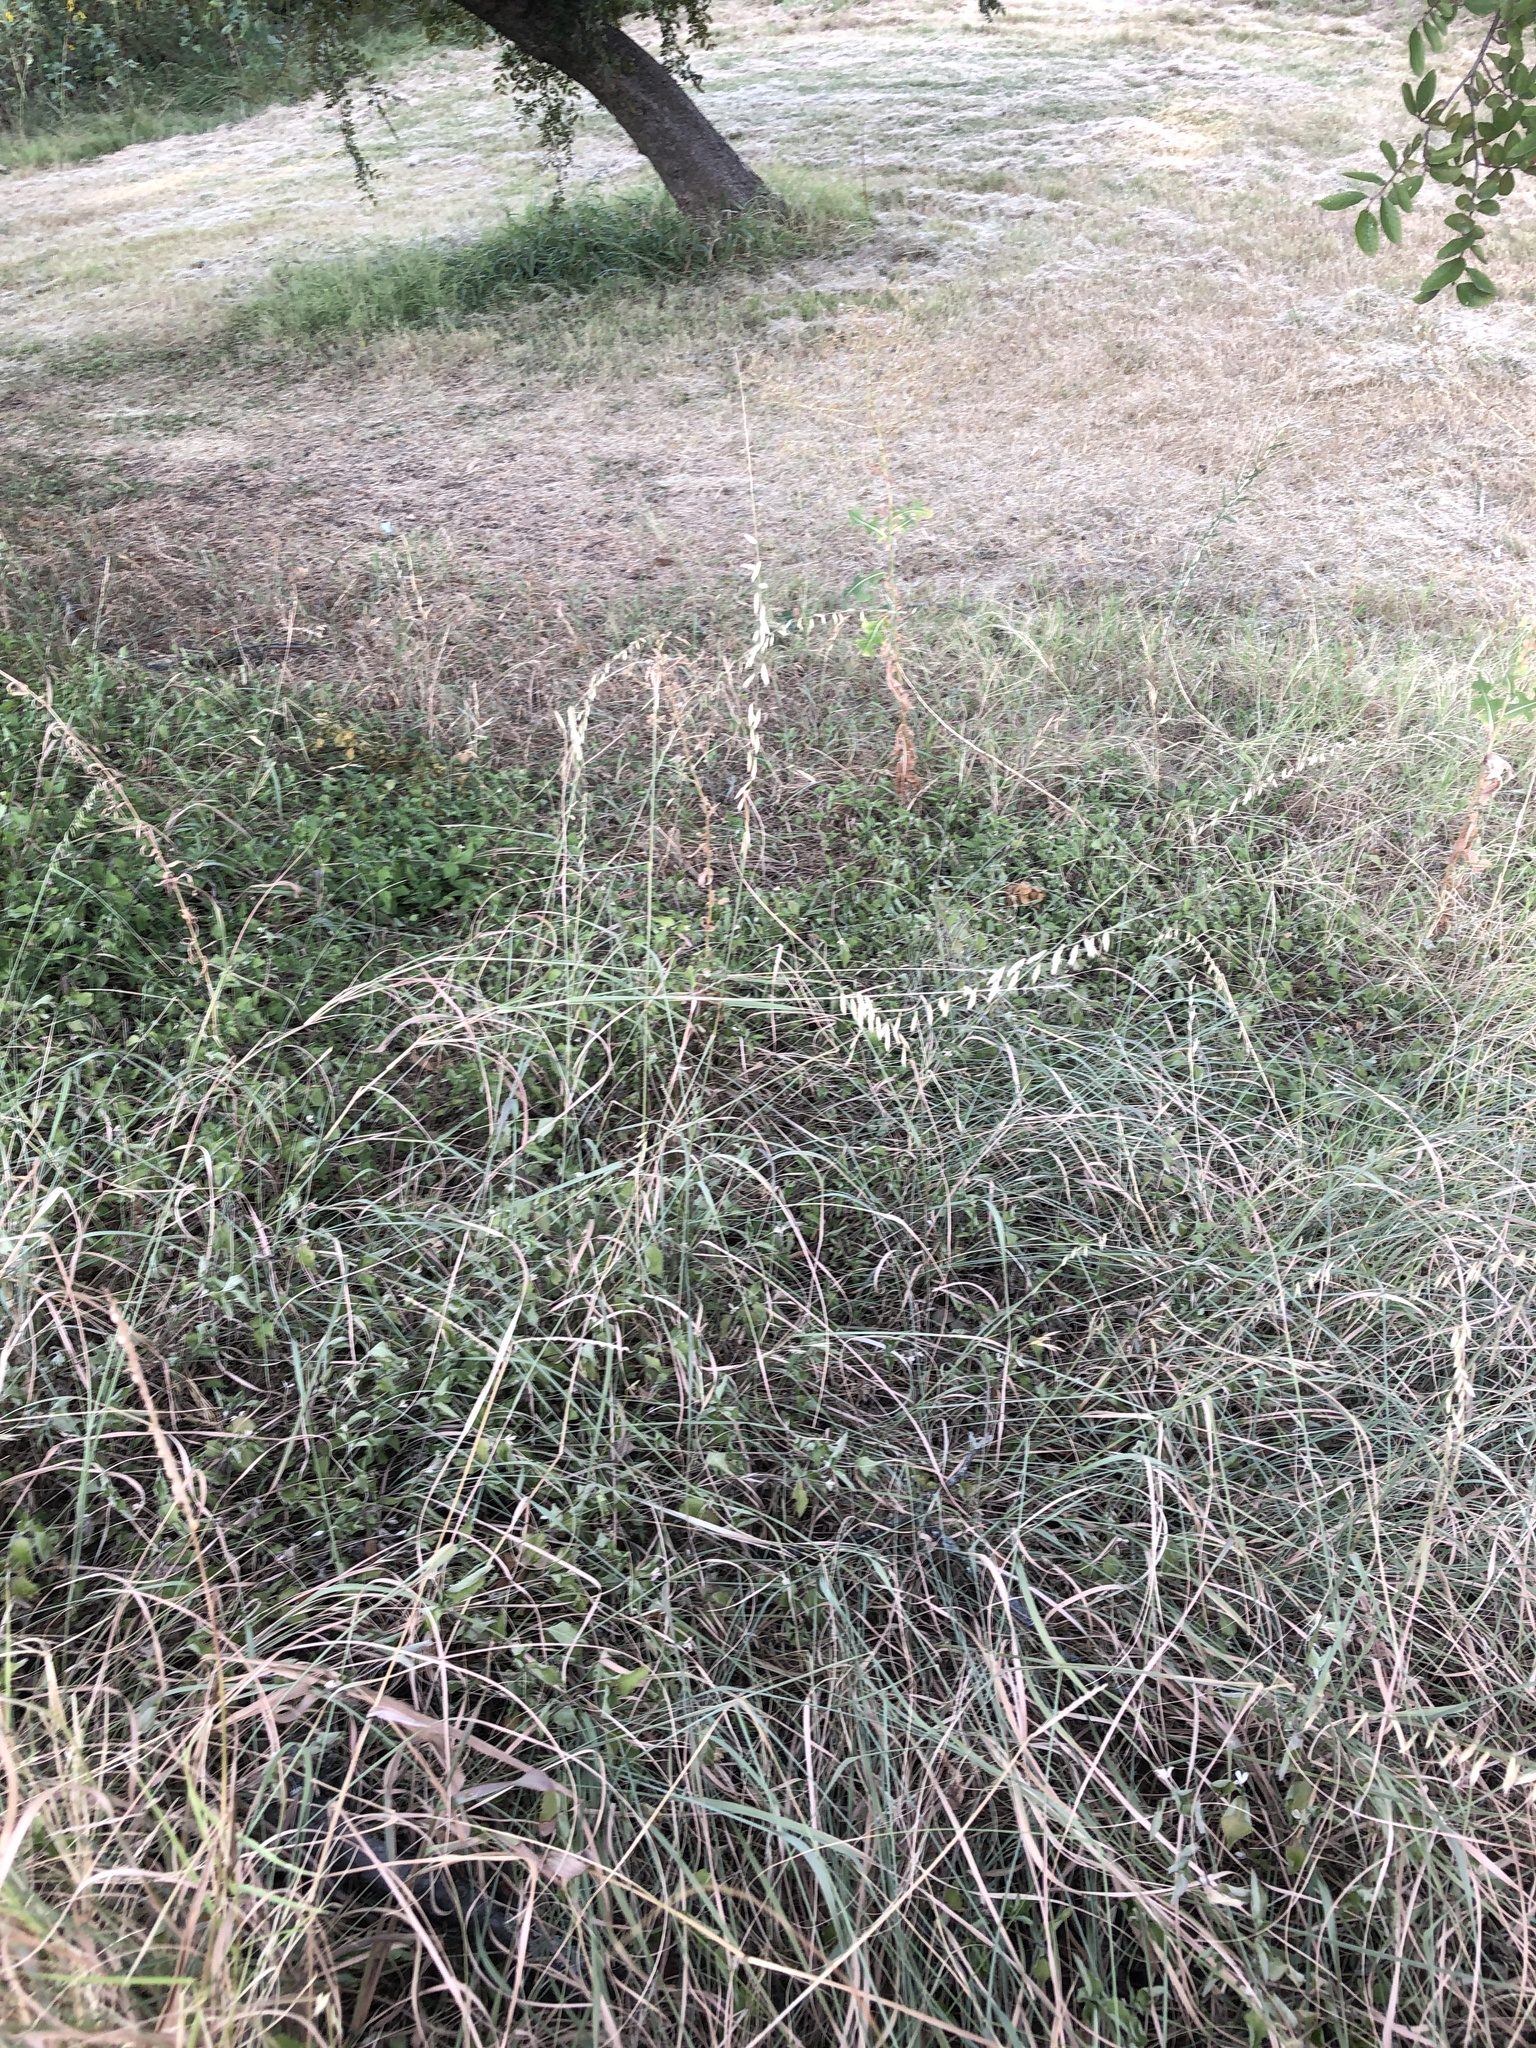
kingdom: Plantae
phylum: Tracheophyta
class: Liliopsida
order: Poales
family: Poaceae
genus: Bouteloua
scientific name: Bouteloua curtipendula
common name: Side-oats grama
